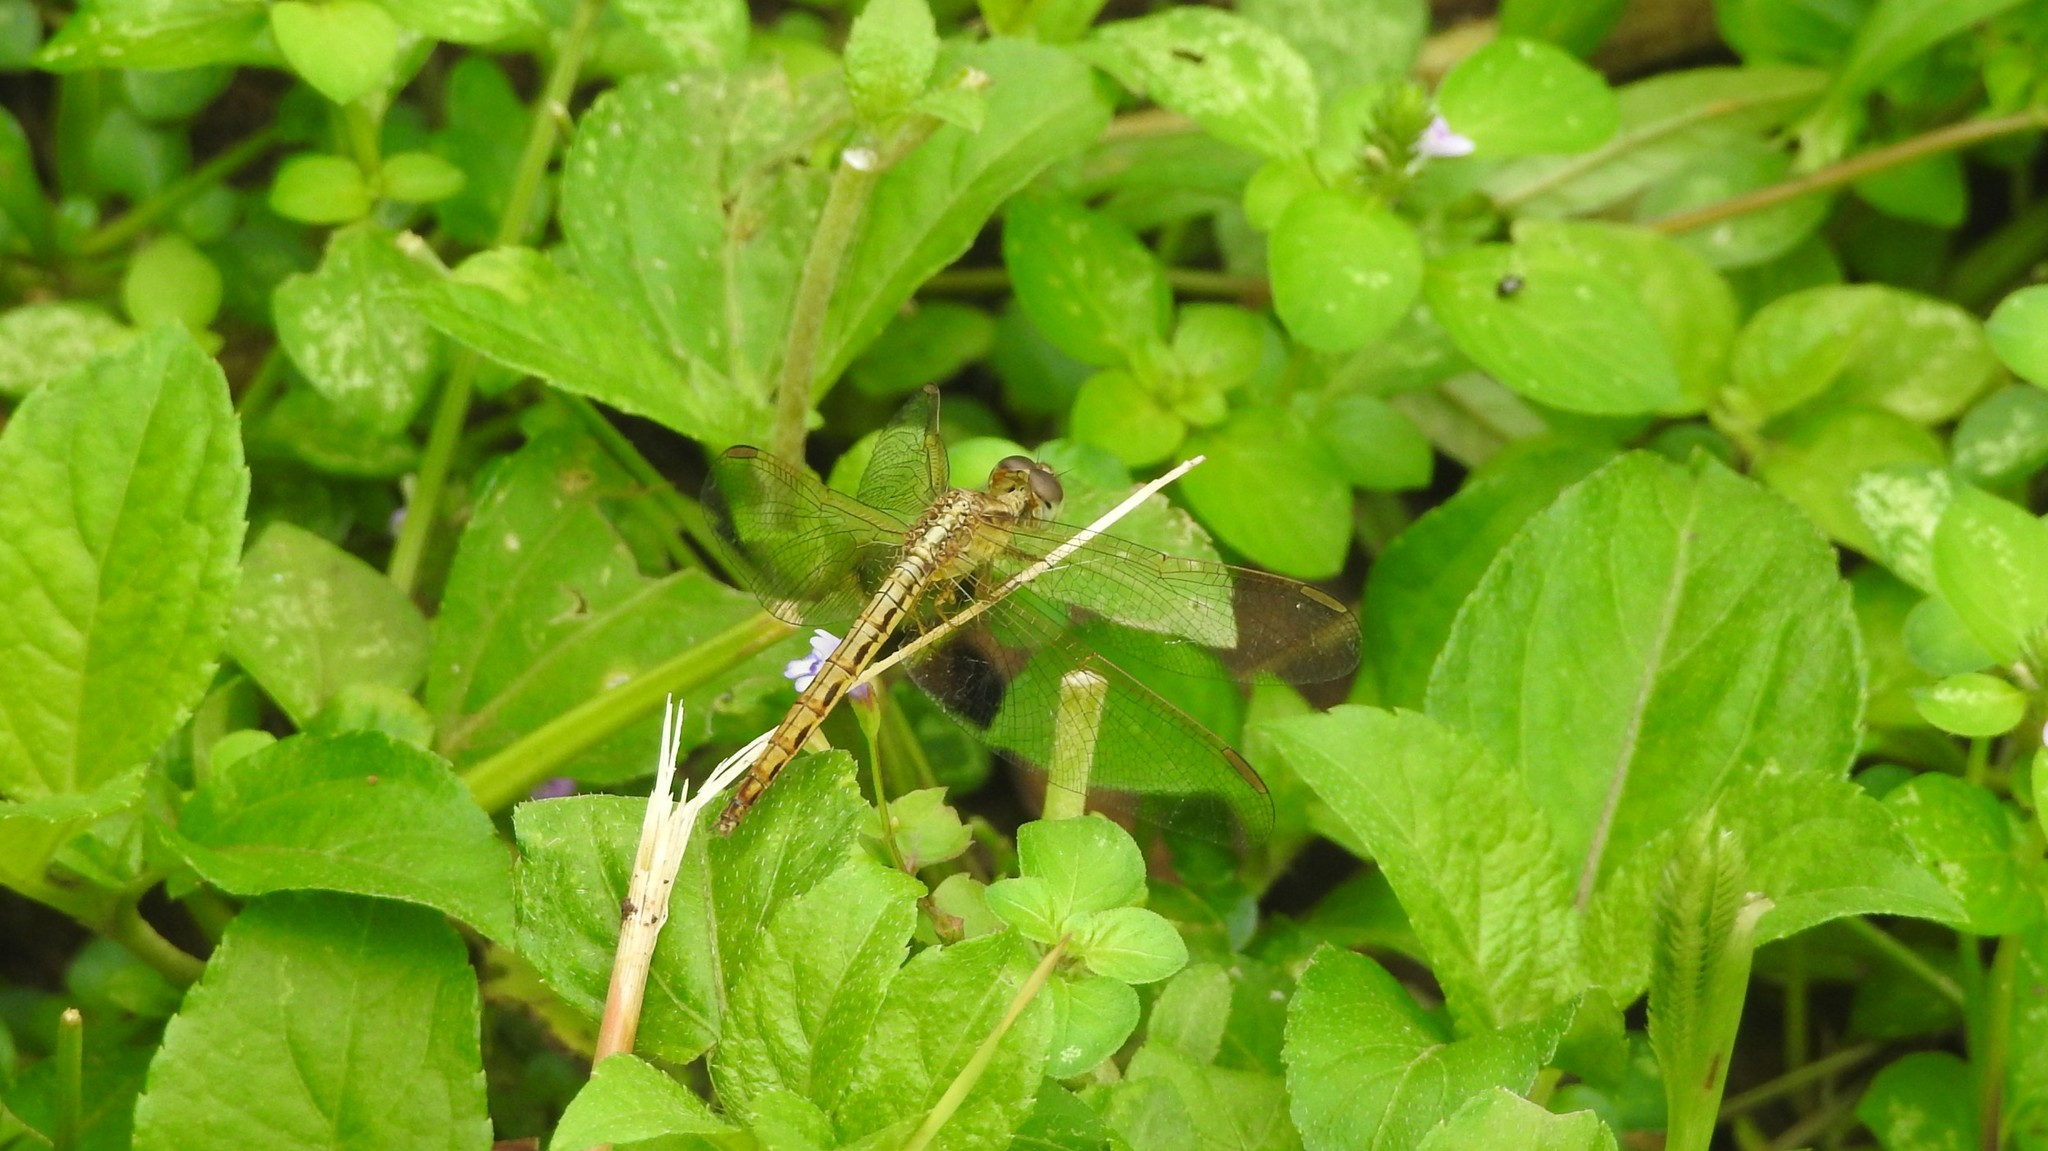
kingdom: Animalia
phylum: Arthropoda
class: Insecta
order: Odonata
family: Libellulidae
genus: Neurothemis
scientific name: Neurothemis intermedia
